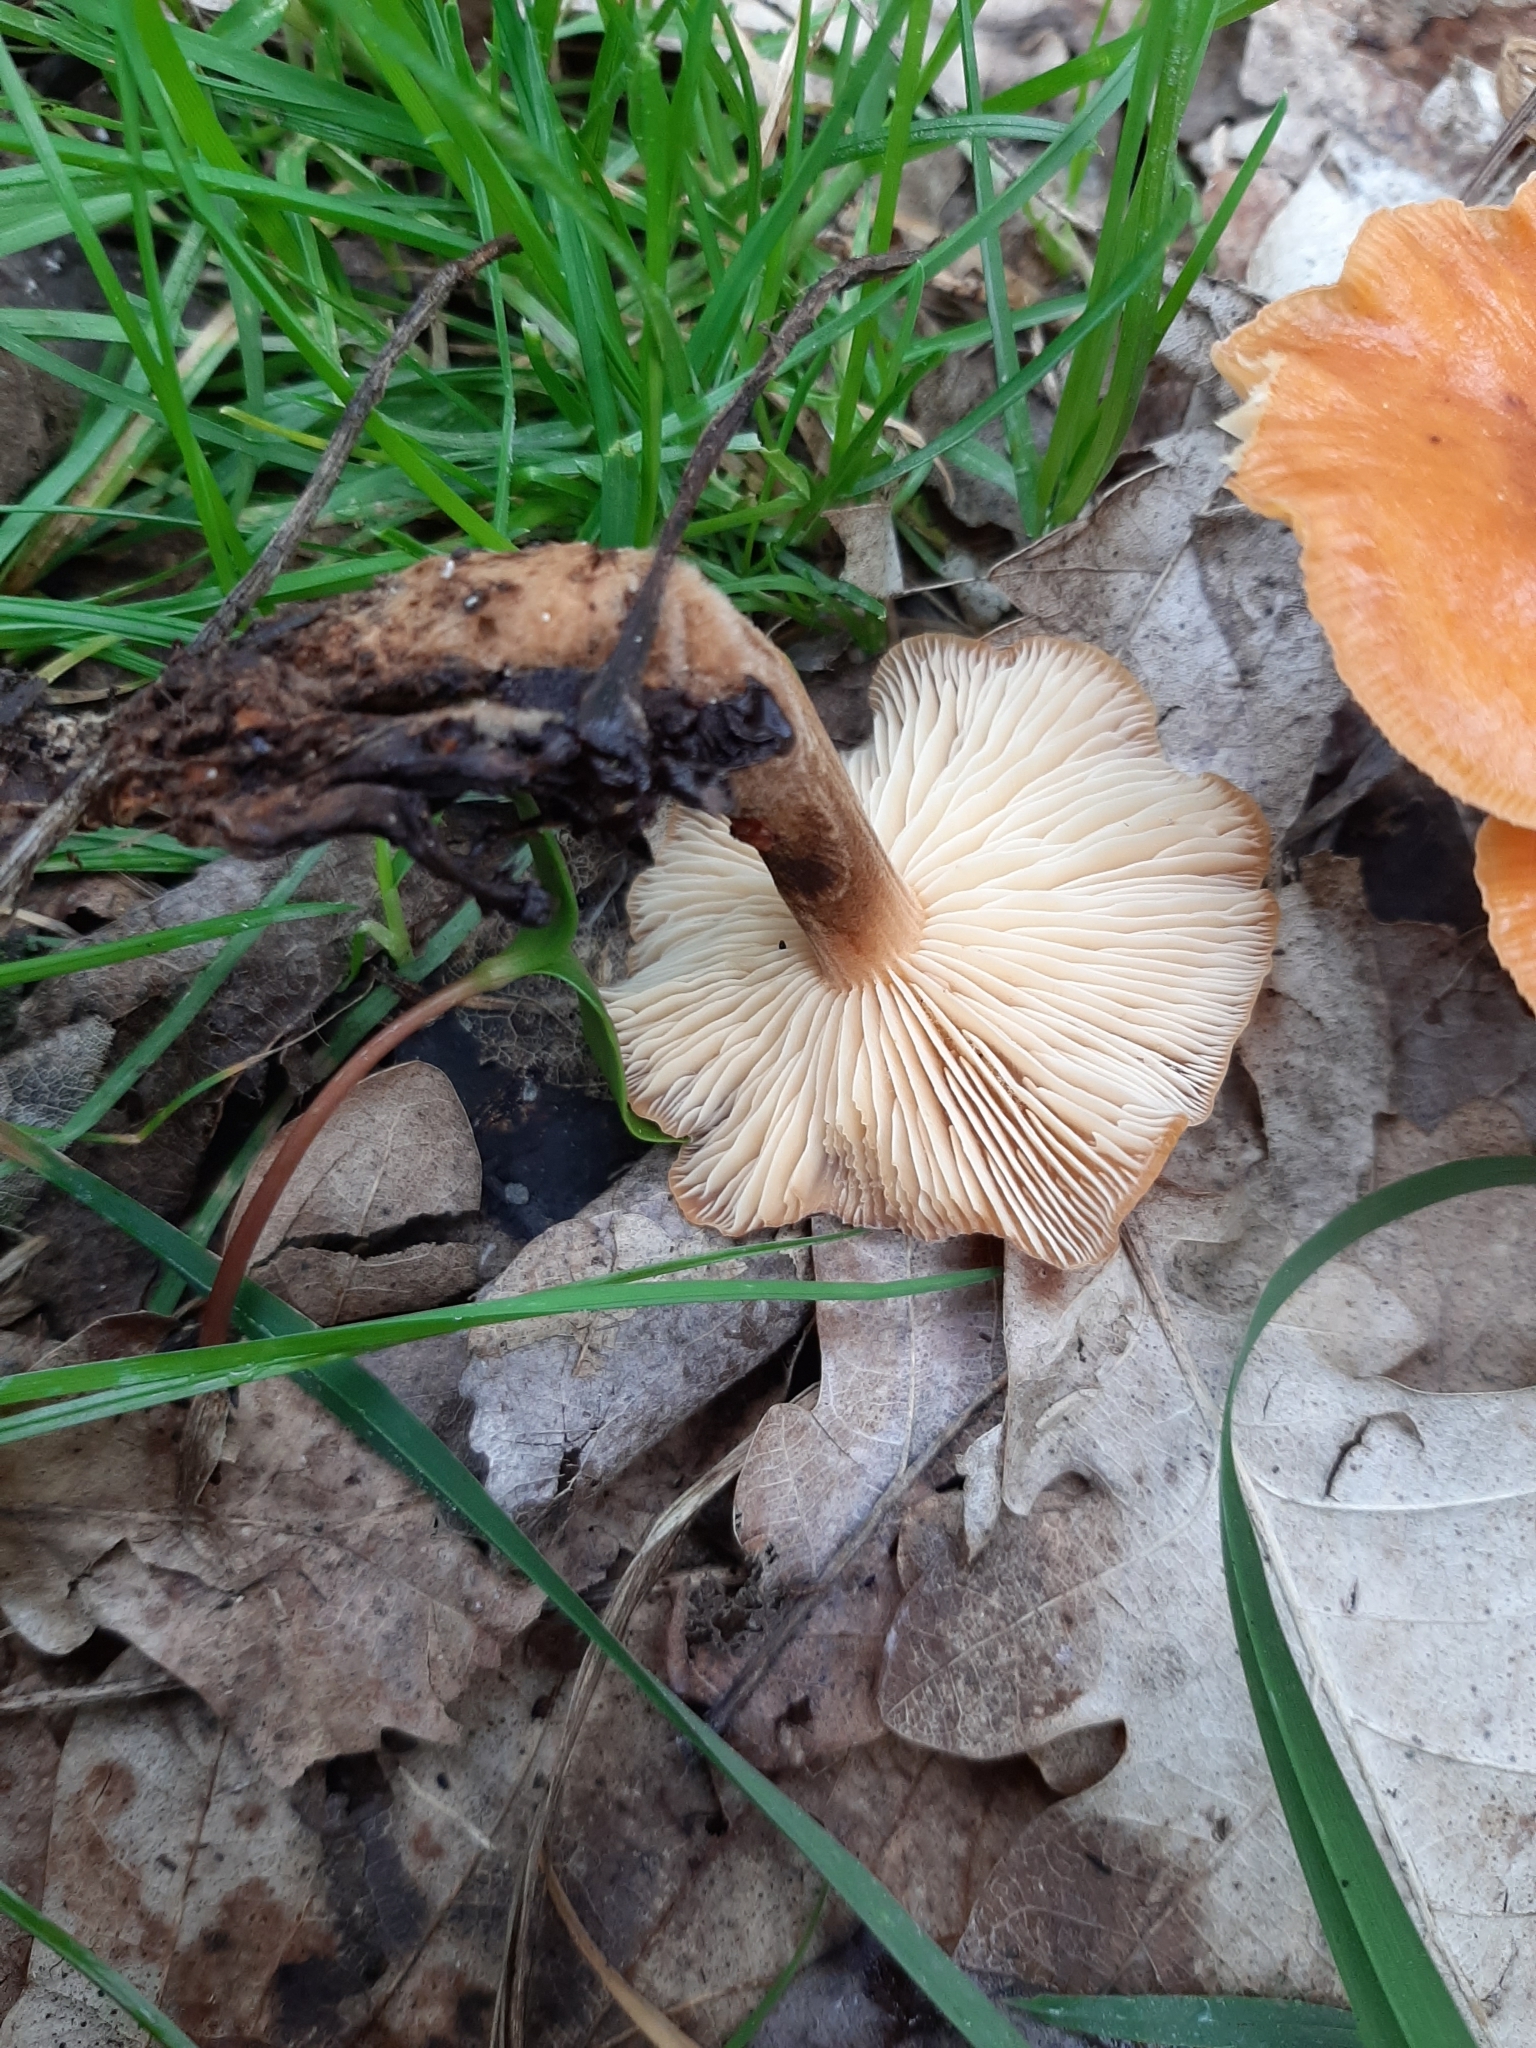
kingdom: Fungi
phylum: Basidiomycota
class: Agaricomycetes
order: Agaricales
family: Physalacriaceae
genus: Flammulina
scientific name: Flammulina velutipes
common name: Velvet shank
